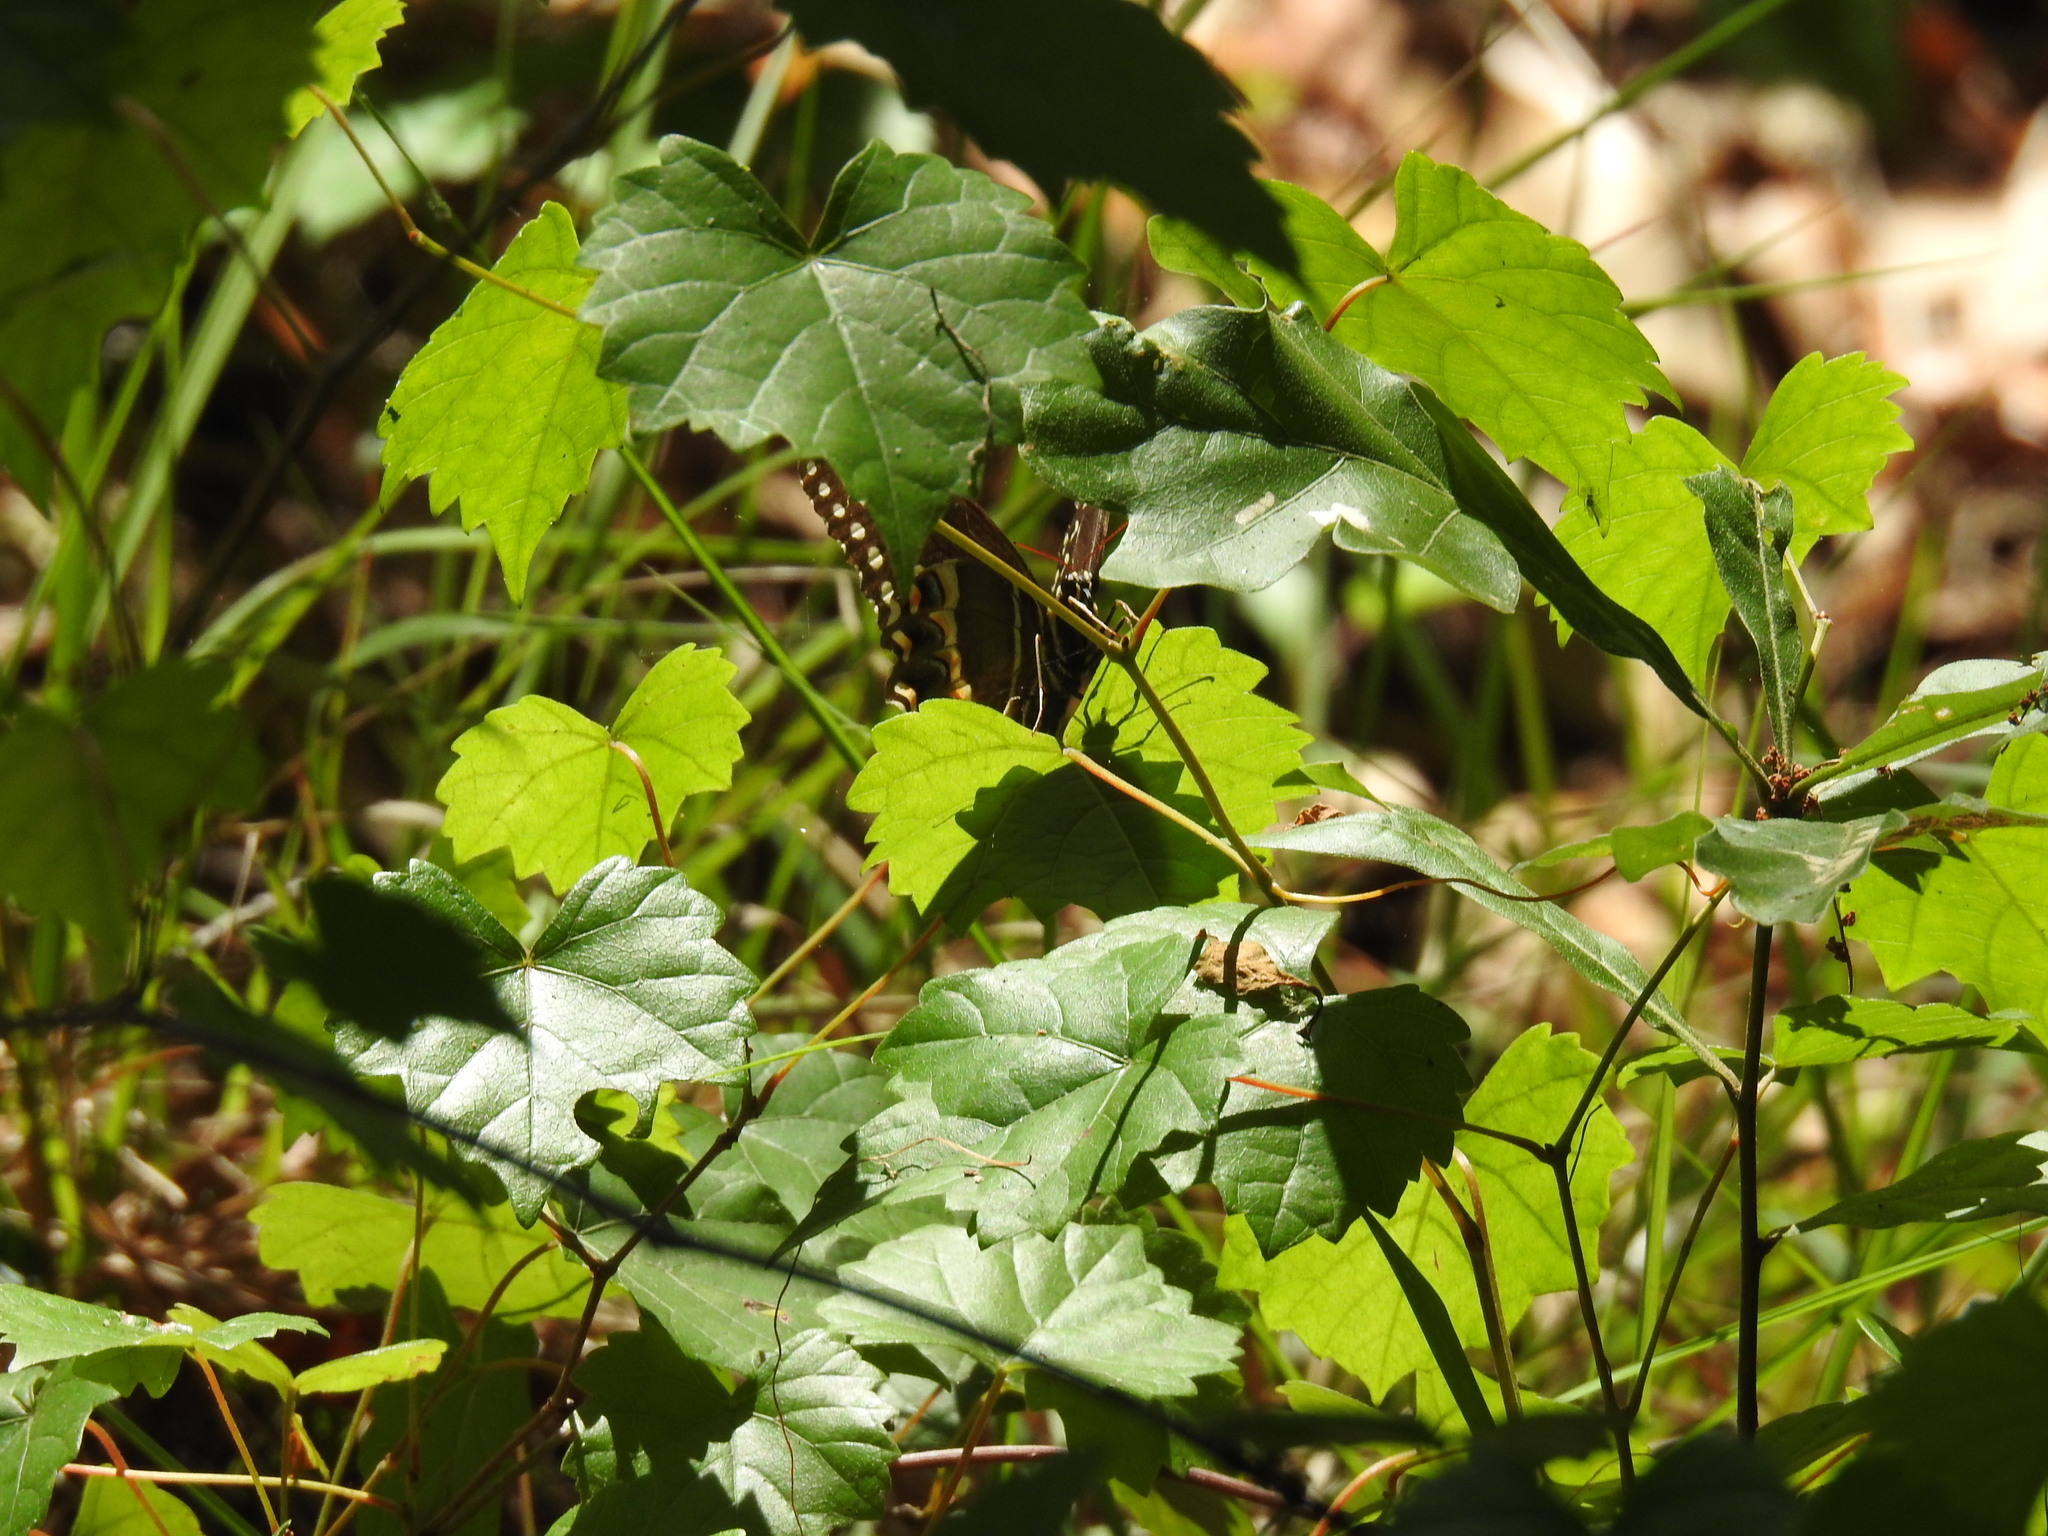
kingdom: Animalia
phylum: Arthropoda
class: Insecta
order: Lepidoptera
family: Papilionidae
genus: Papilio
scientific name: Papilio palamedes
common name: Palamedes swallowtail
